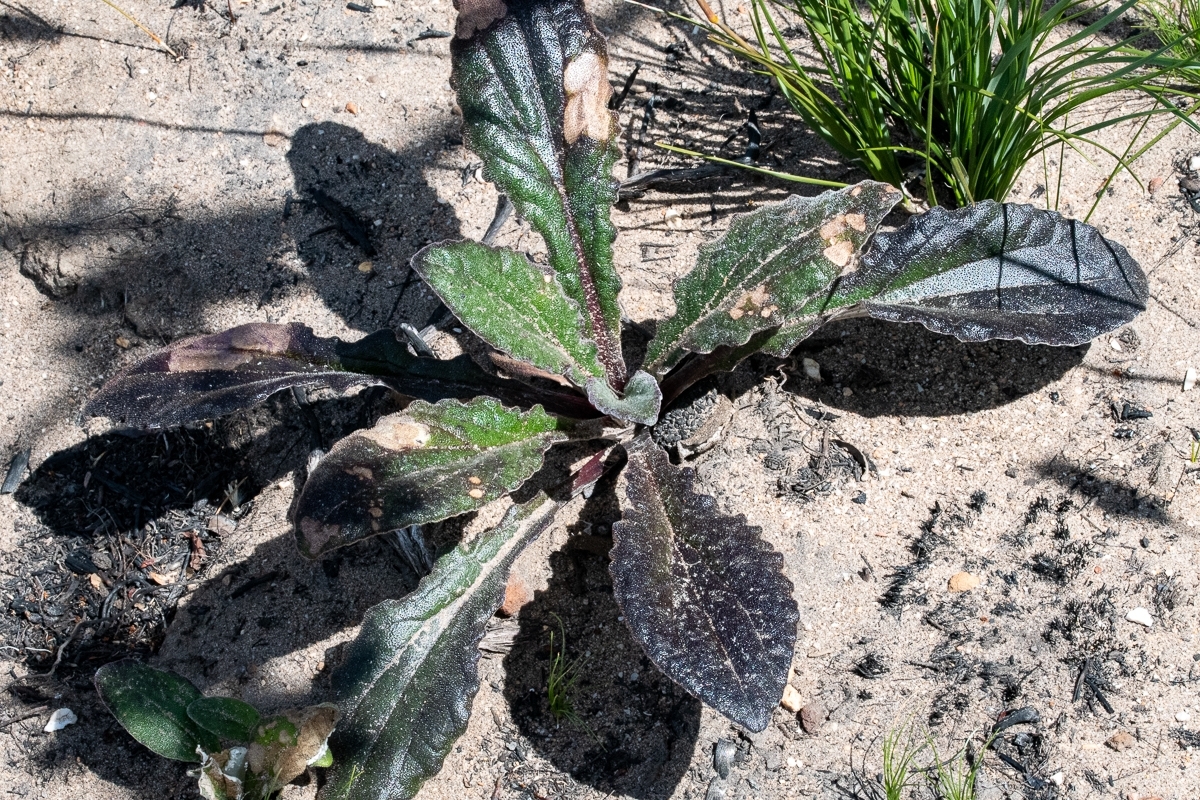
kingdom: Plantae
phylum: Tracheophyta
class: Magnoliopsida
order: Asterales
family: Asteraceae
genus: Haplocarpha
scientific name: Haplocarpha lanata
